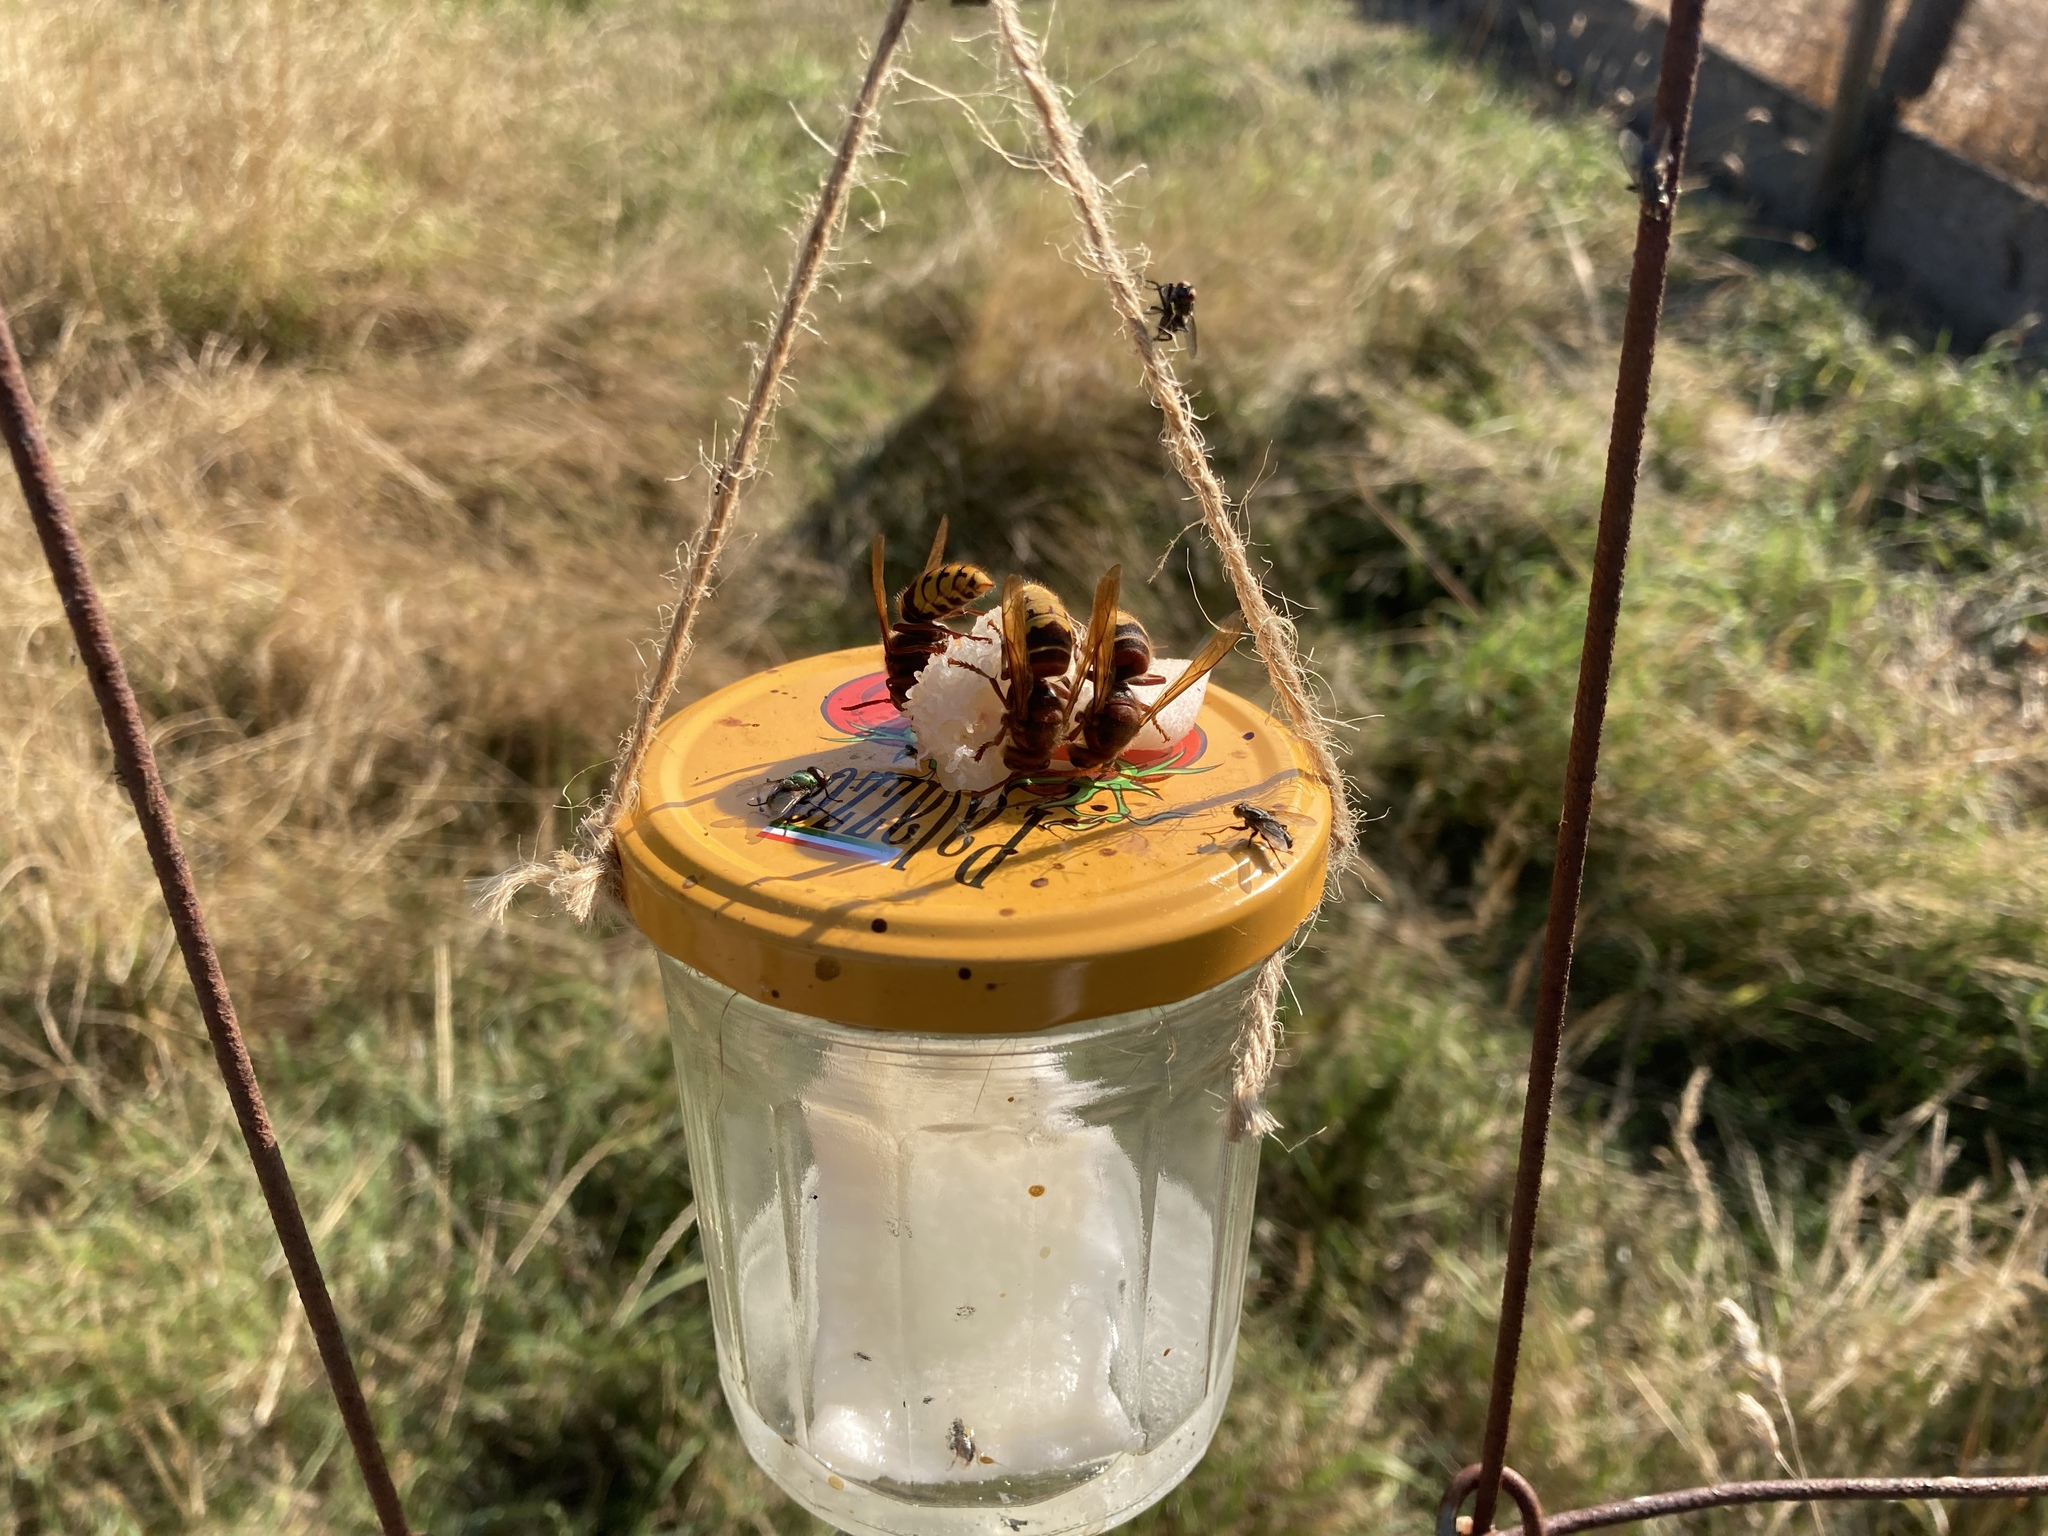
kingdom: Animalia
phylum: Arthropoda
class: Insecta
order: Hymenoptera
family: Vespidae
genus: Vespa
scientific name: Vespa crabro
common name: Hornet
